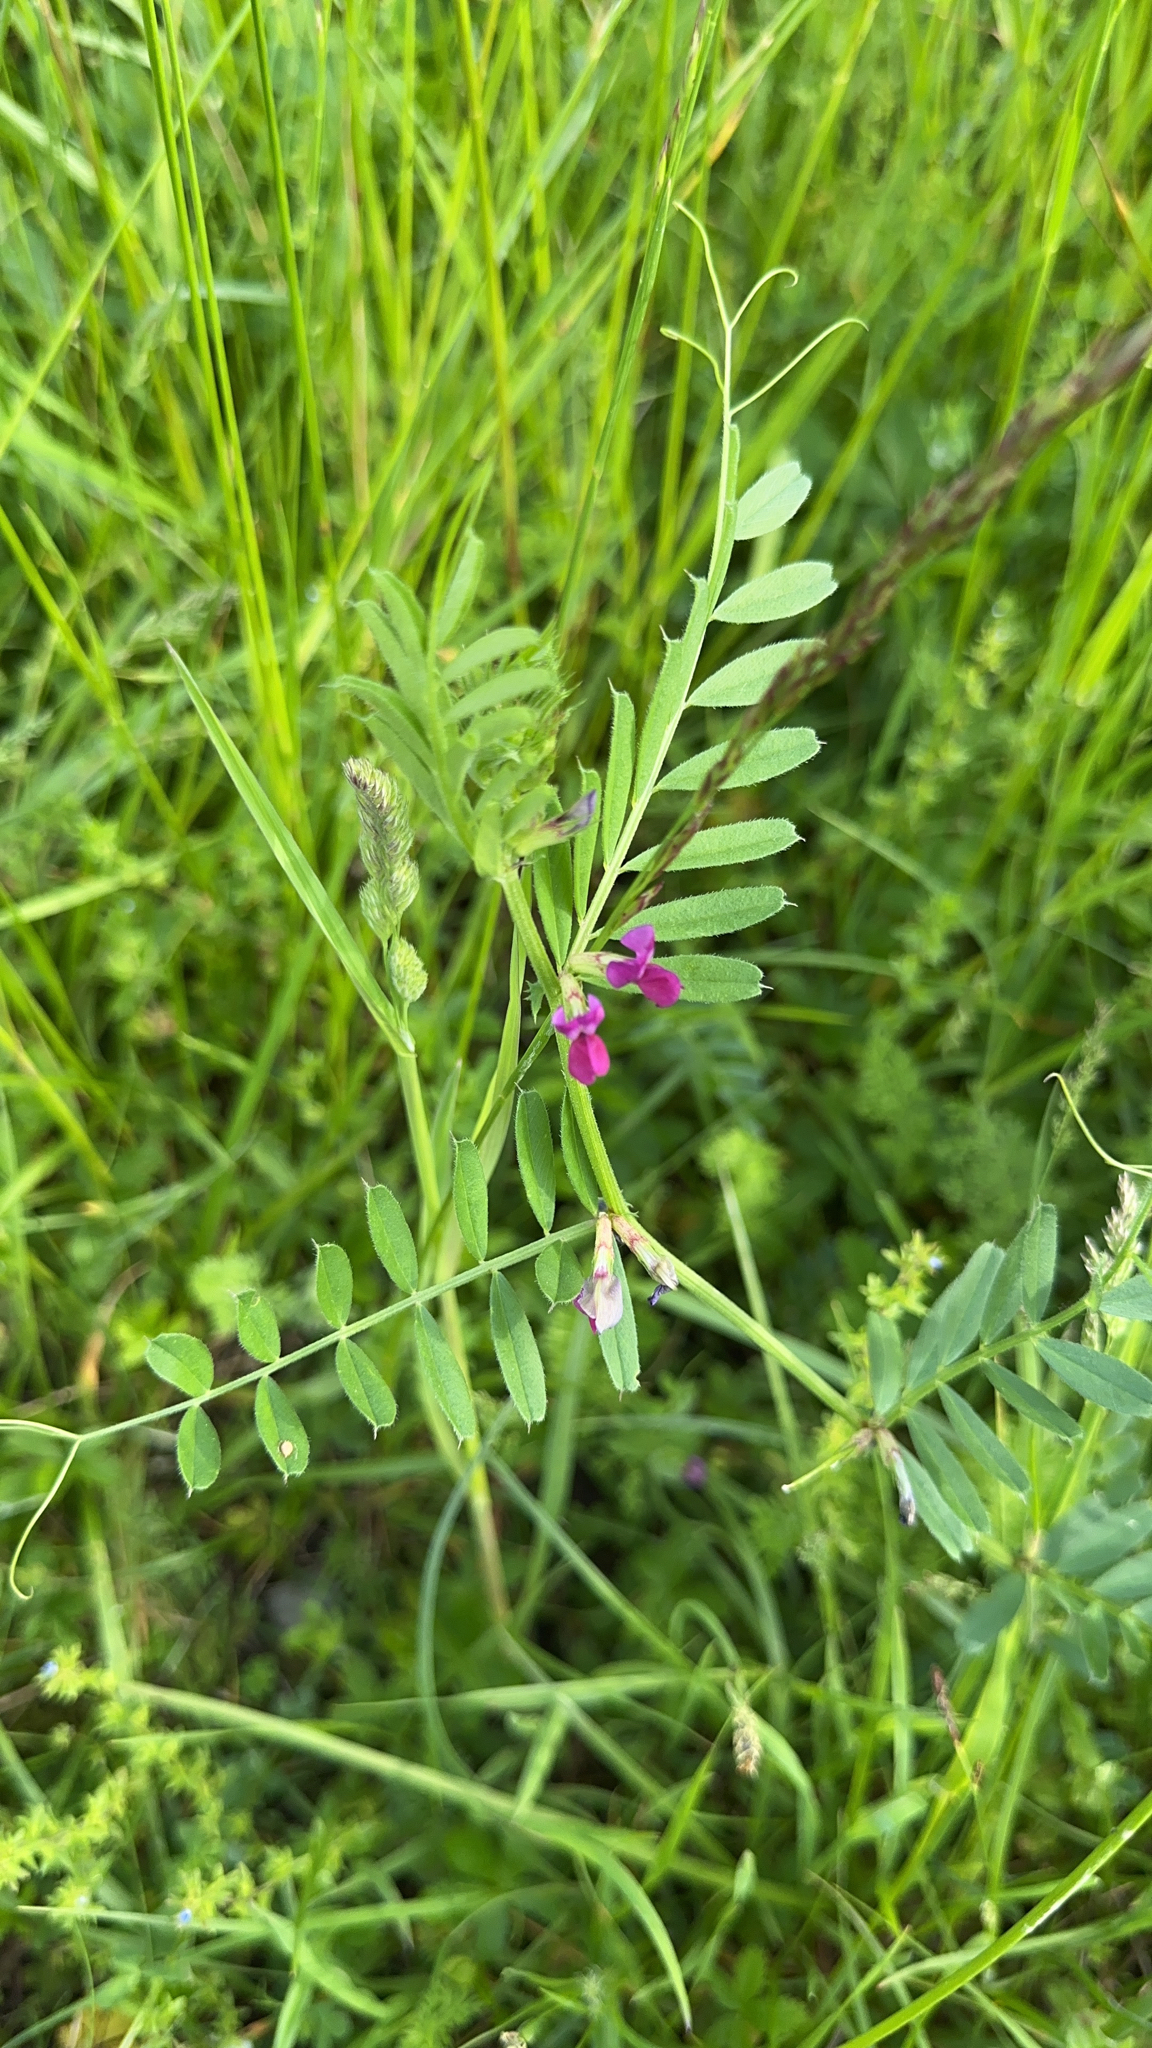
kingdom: Plantae
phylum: Tracheophyta
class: Magnoliopsida
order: Fabales
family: Fabaceae
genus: Vicia
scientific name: Vicia sativa
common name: Garden vetch
